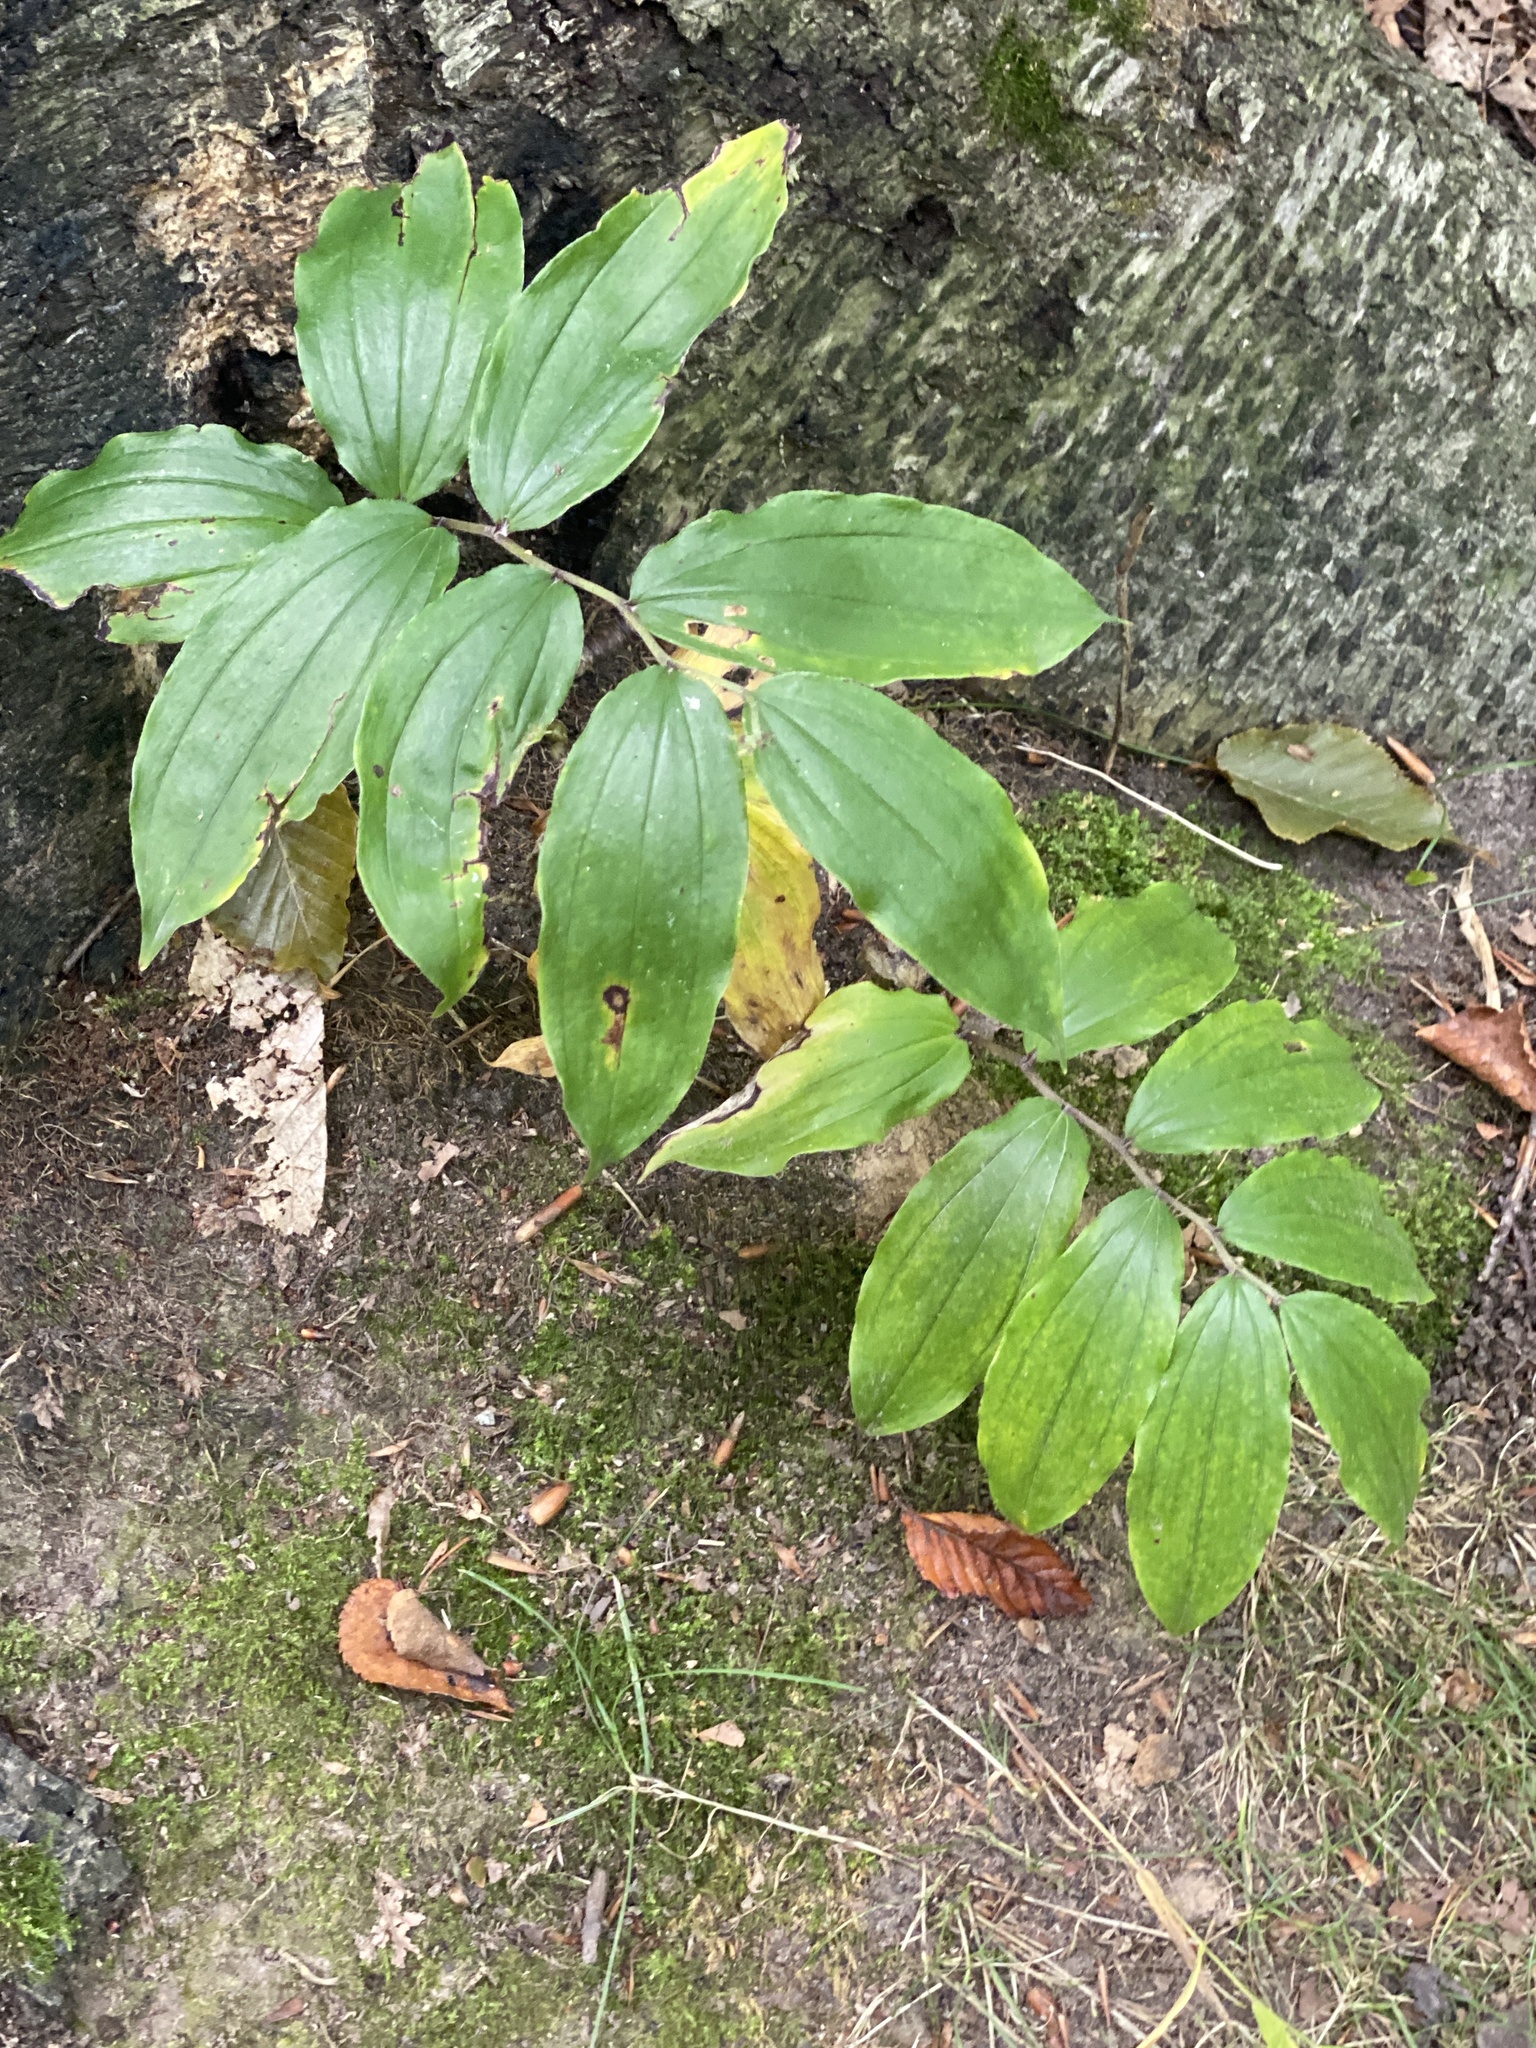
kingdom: Plantae
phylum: Tracheophyta
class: Liliopsida
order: Asparagales
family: Asparagaceae
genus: Maianthemum
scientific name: Maianthemum racemosum
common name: False spikenard
